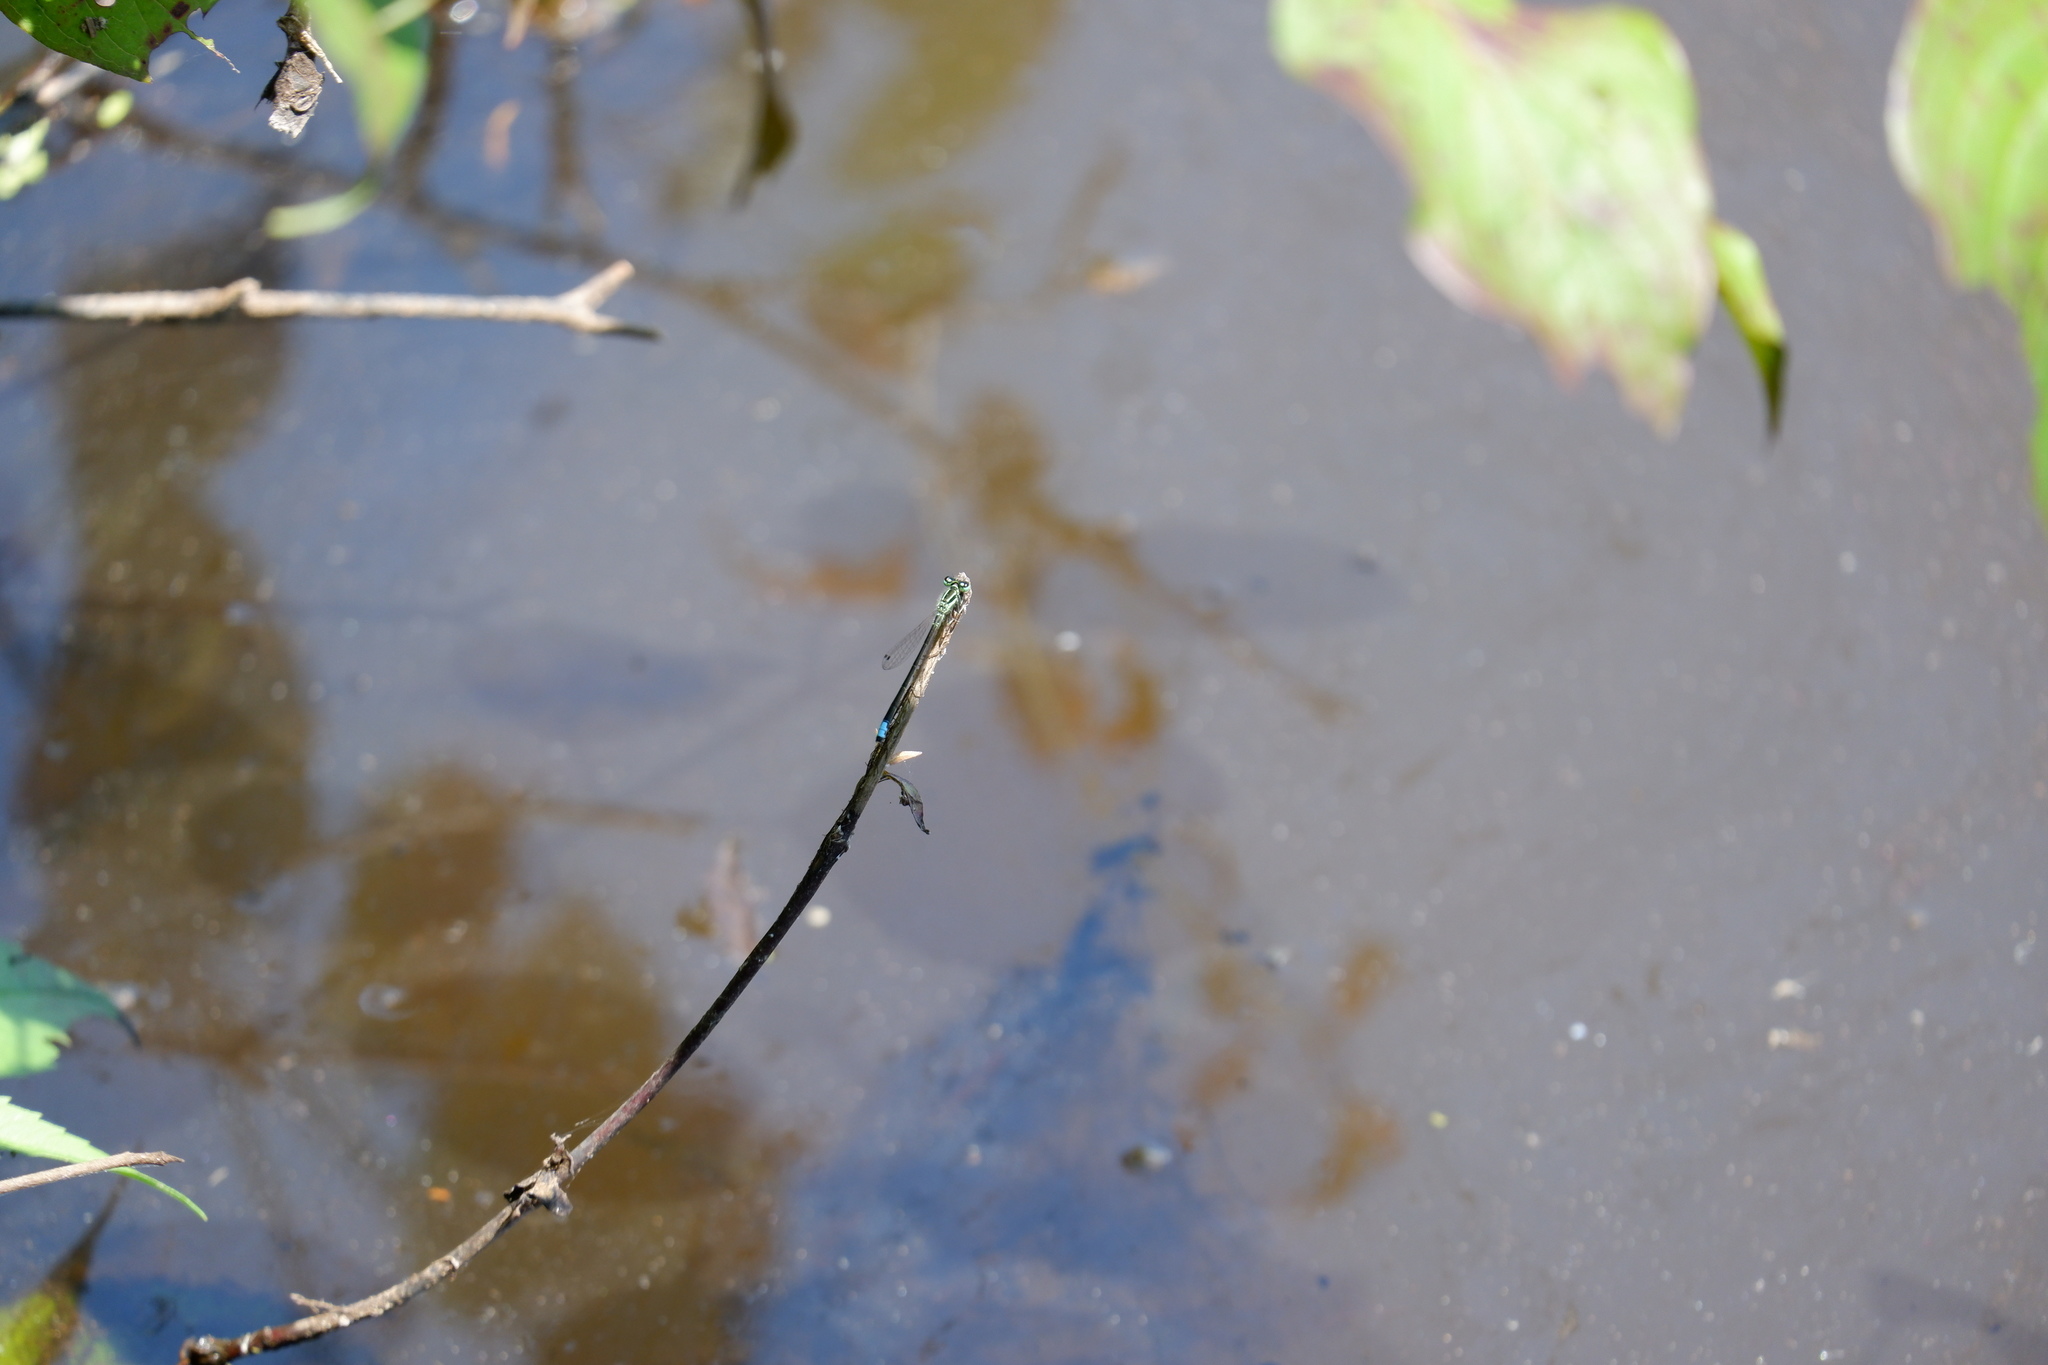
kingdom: Animalia
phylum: Arthropoda
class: Insecta
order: Odonata
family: Coenagrionidae
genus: Ischnura
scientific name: Ischnura verticalis
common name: Eastern forktail
